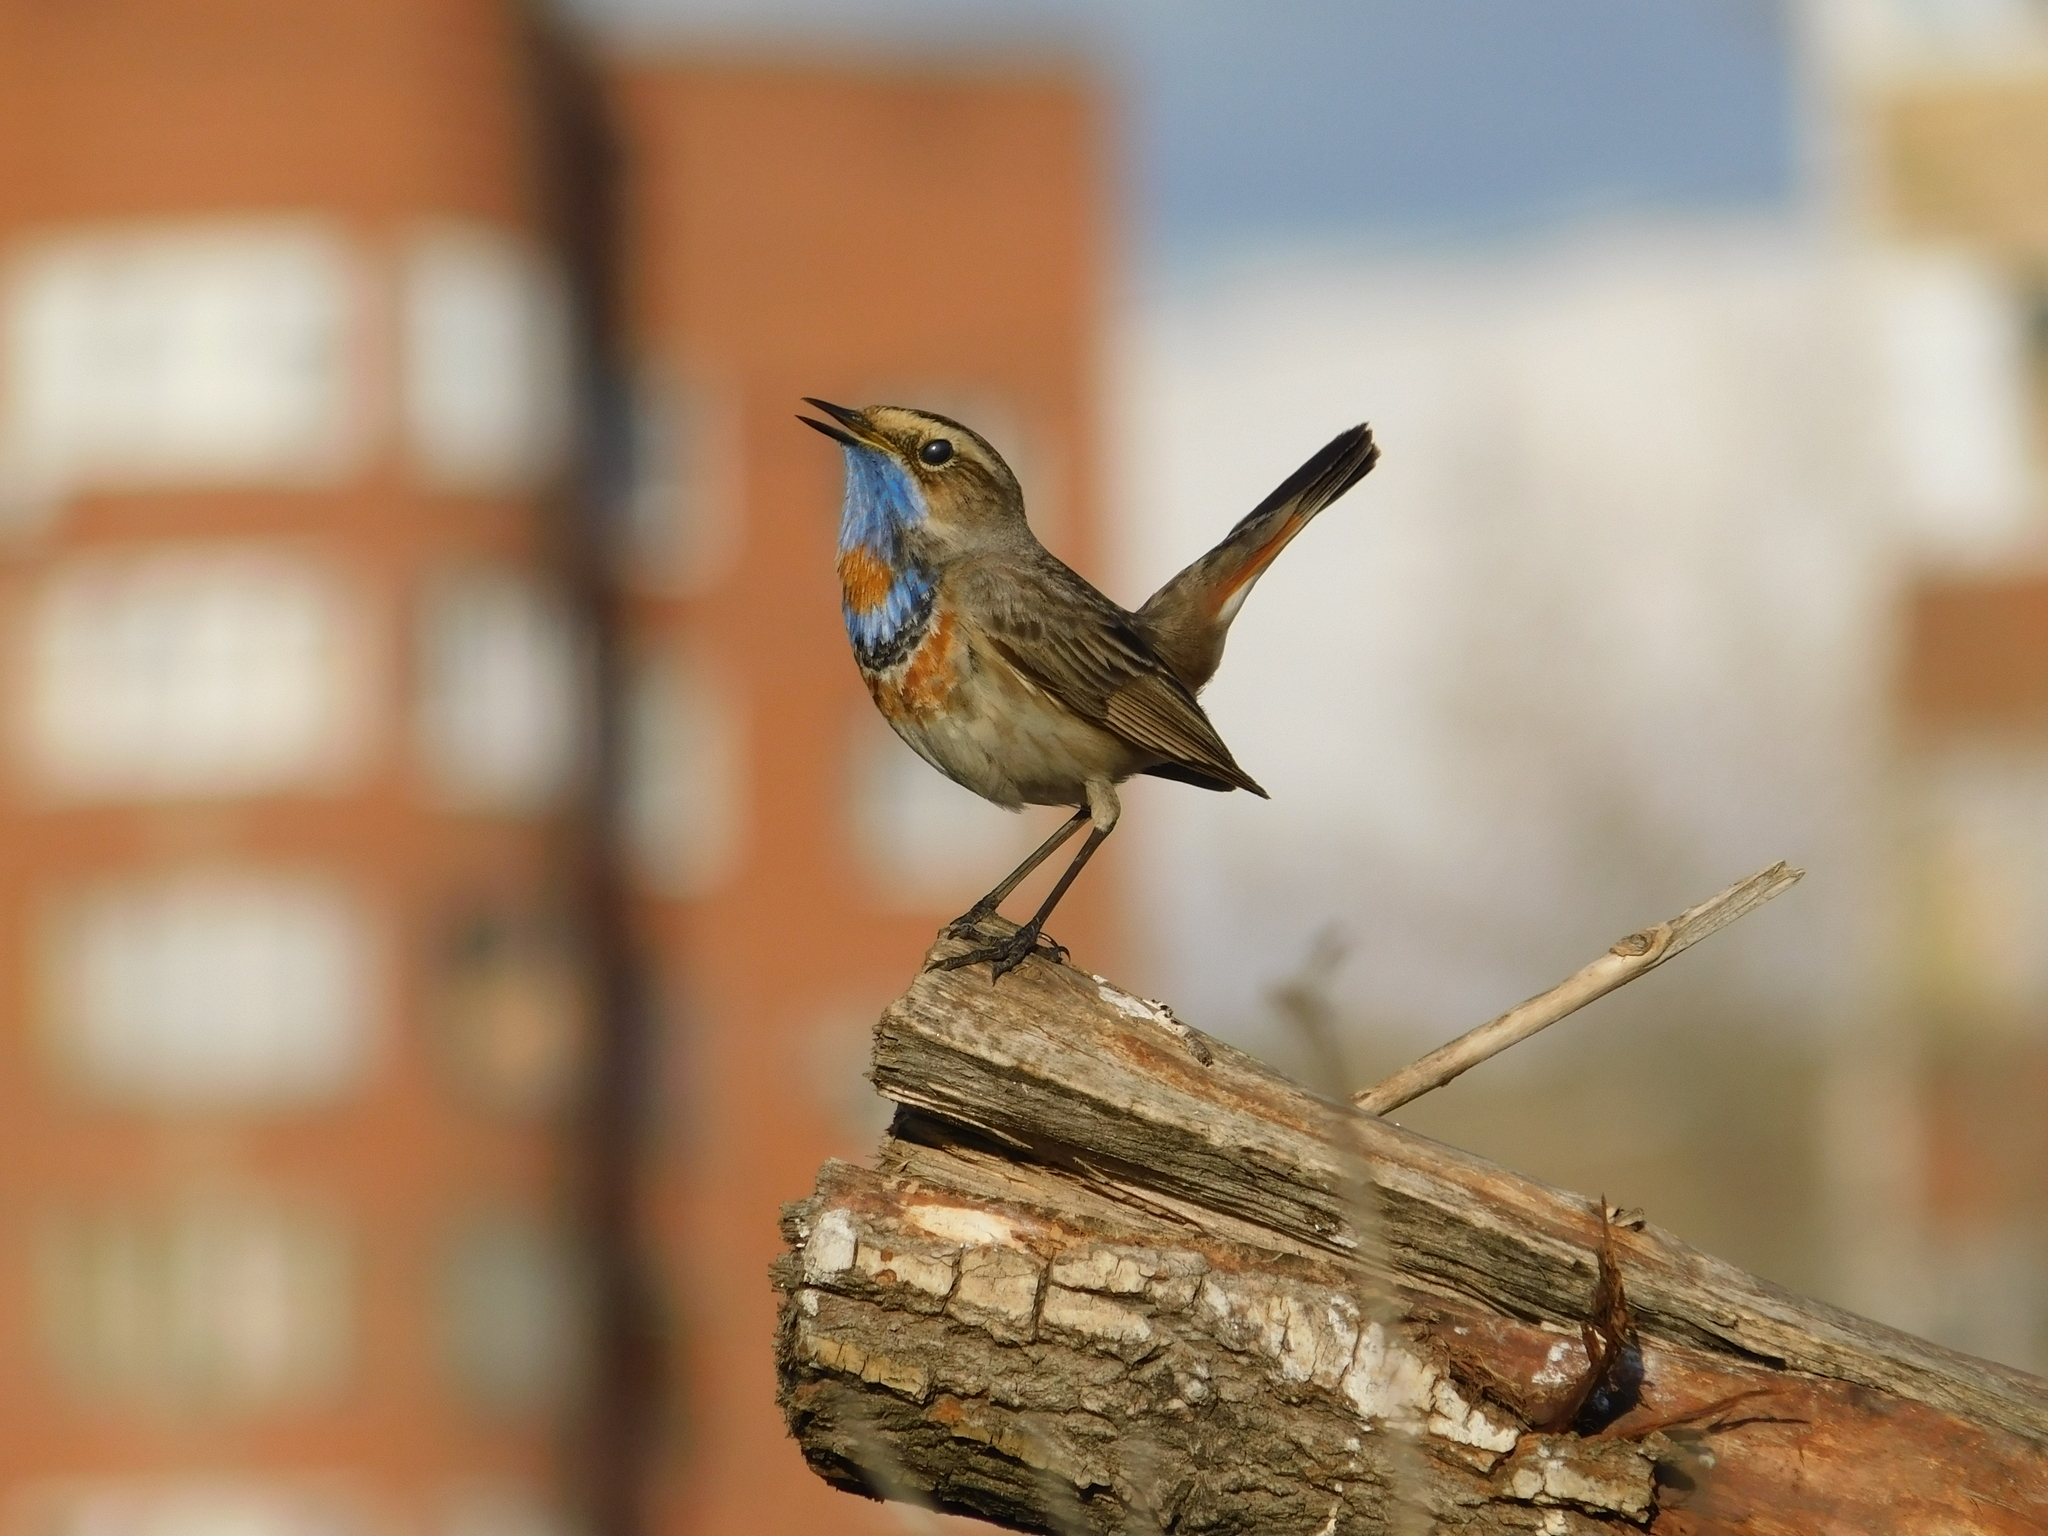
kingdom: Animalia
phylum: Chordata
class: Aves
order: Passeriformes
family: Muscicapidae
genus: Luscinia
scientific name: Luscinia svecica
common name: Bluethroat
